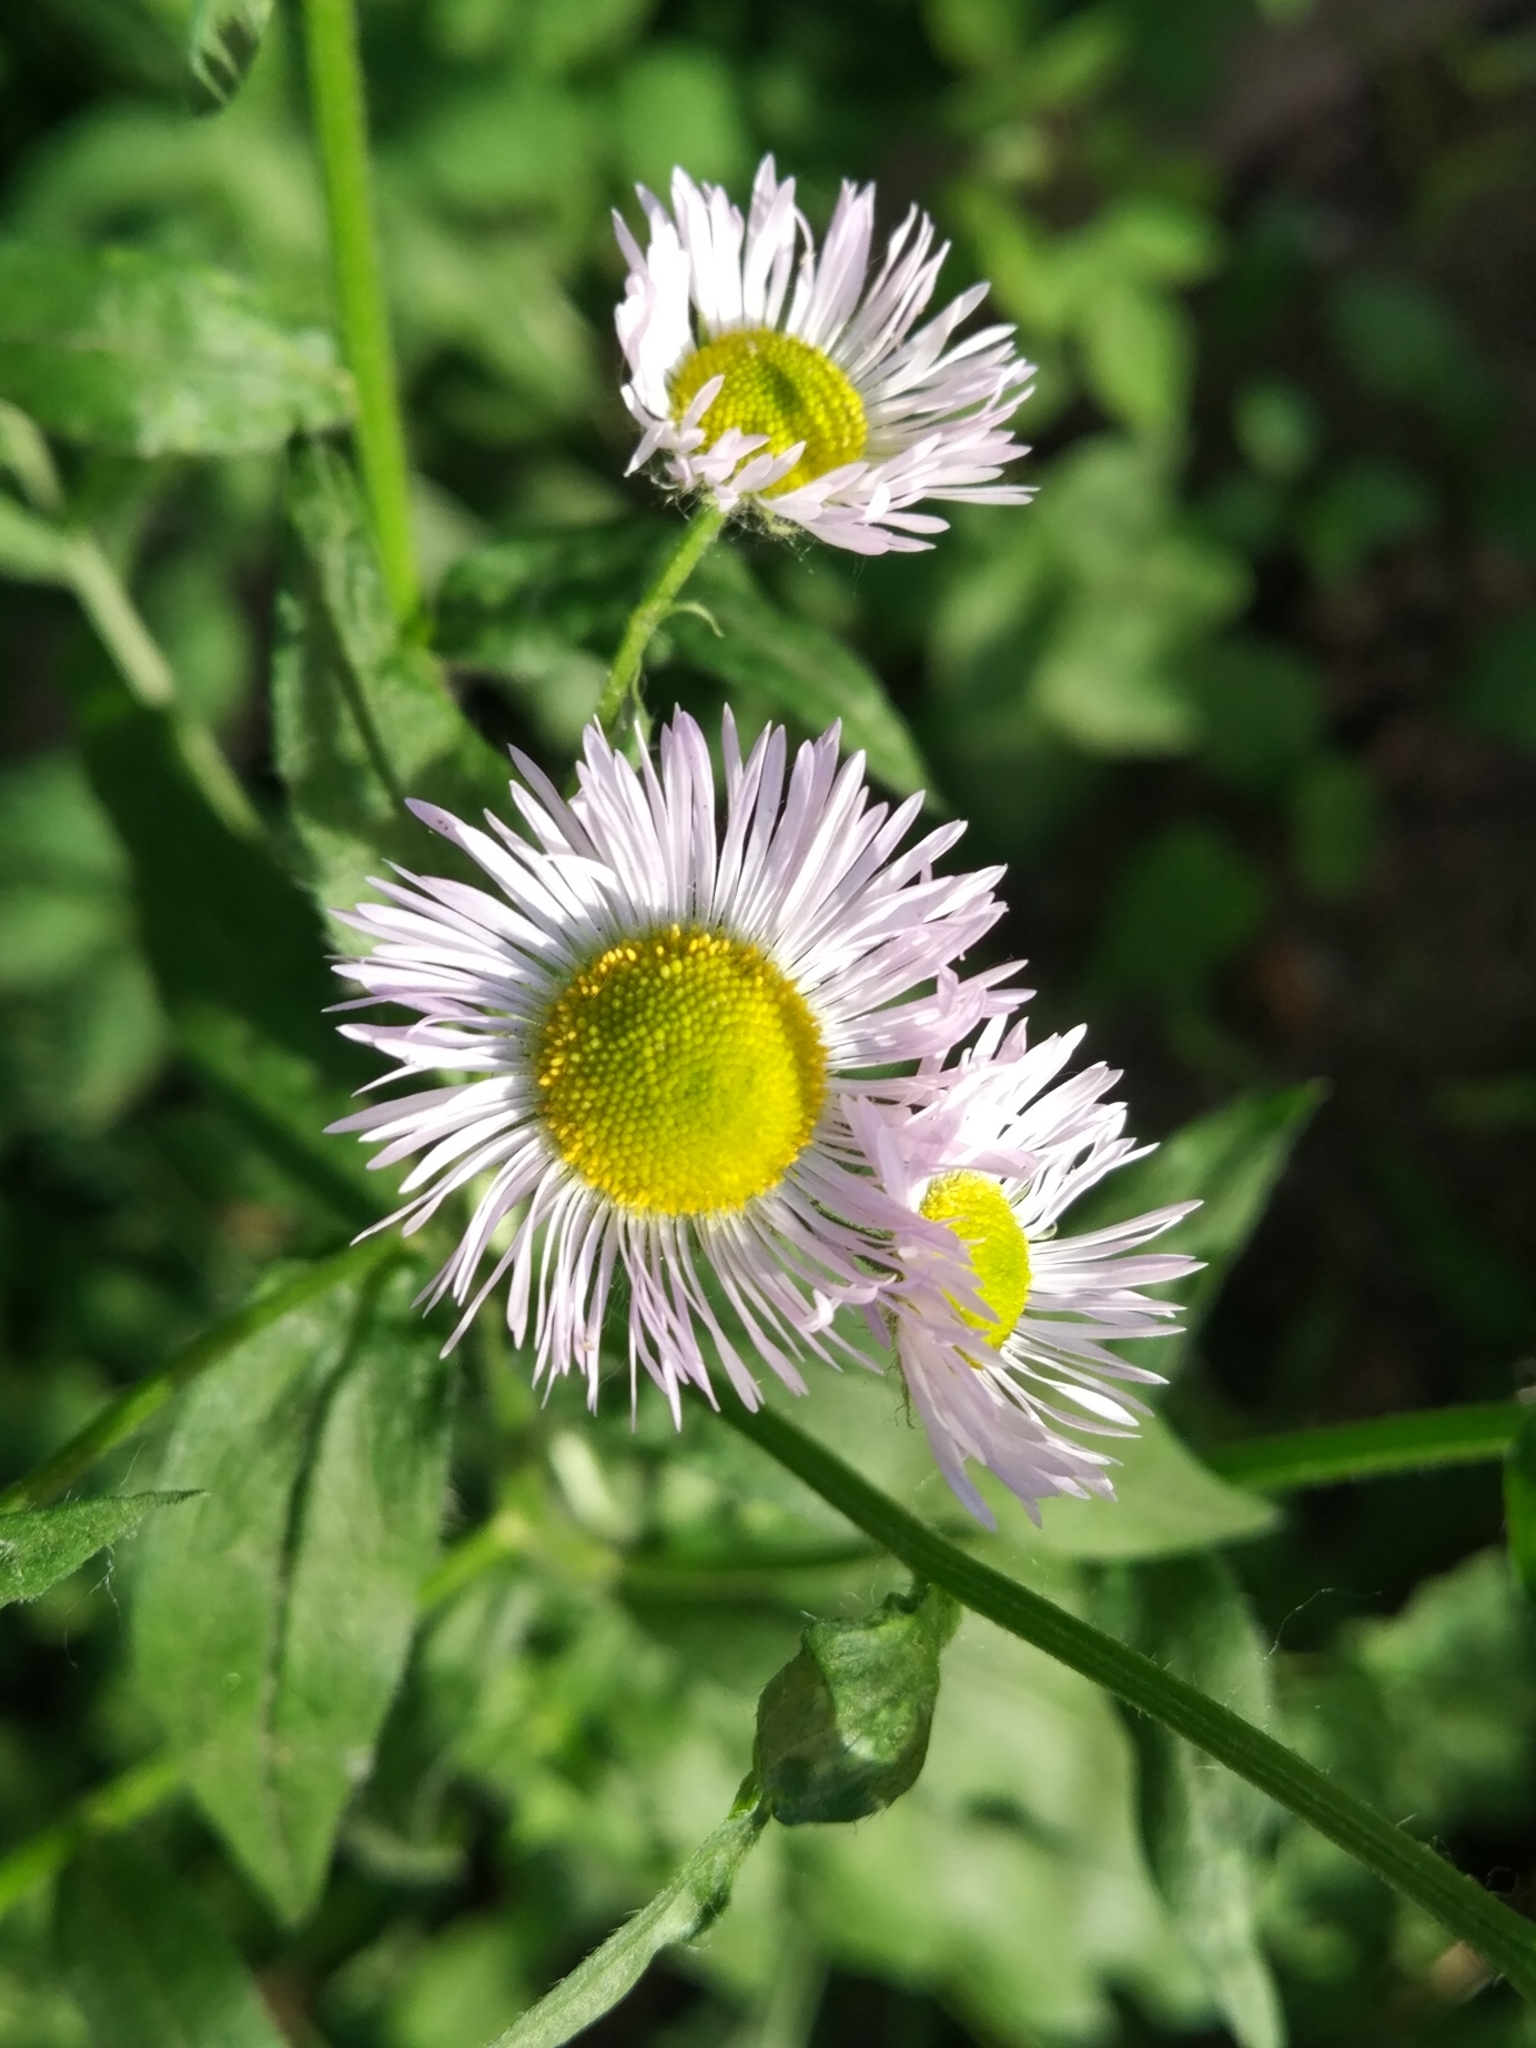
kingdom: Plantae
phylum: Tracheophyta
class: Magnoliopsida
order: Asterales
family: Asteraceae
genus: Erigeron
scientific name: Erigeron annuus
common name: Tall fleabane
